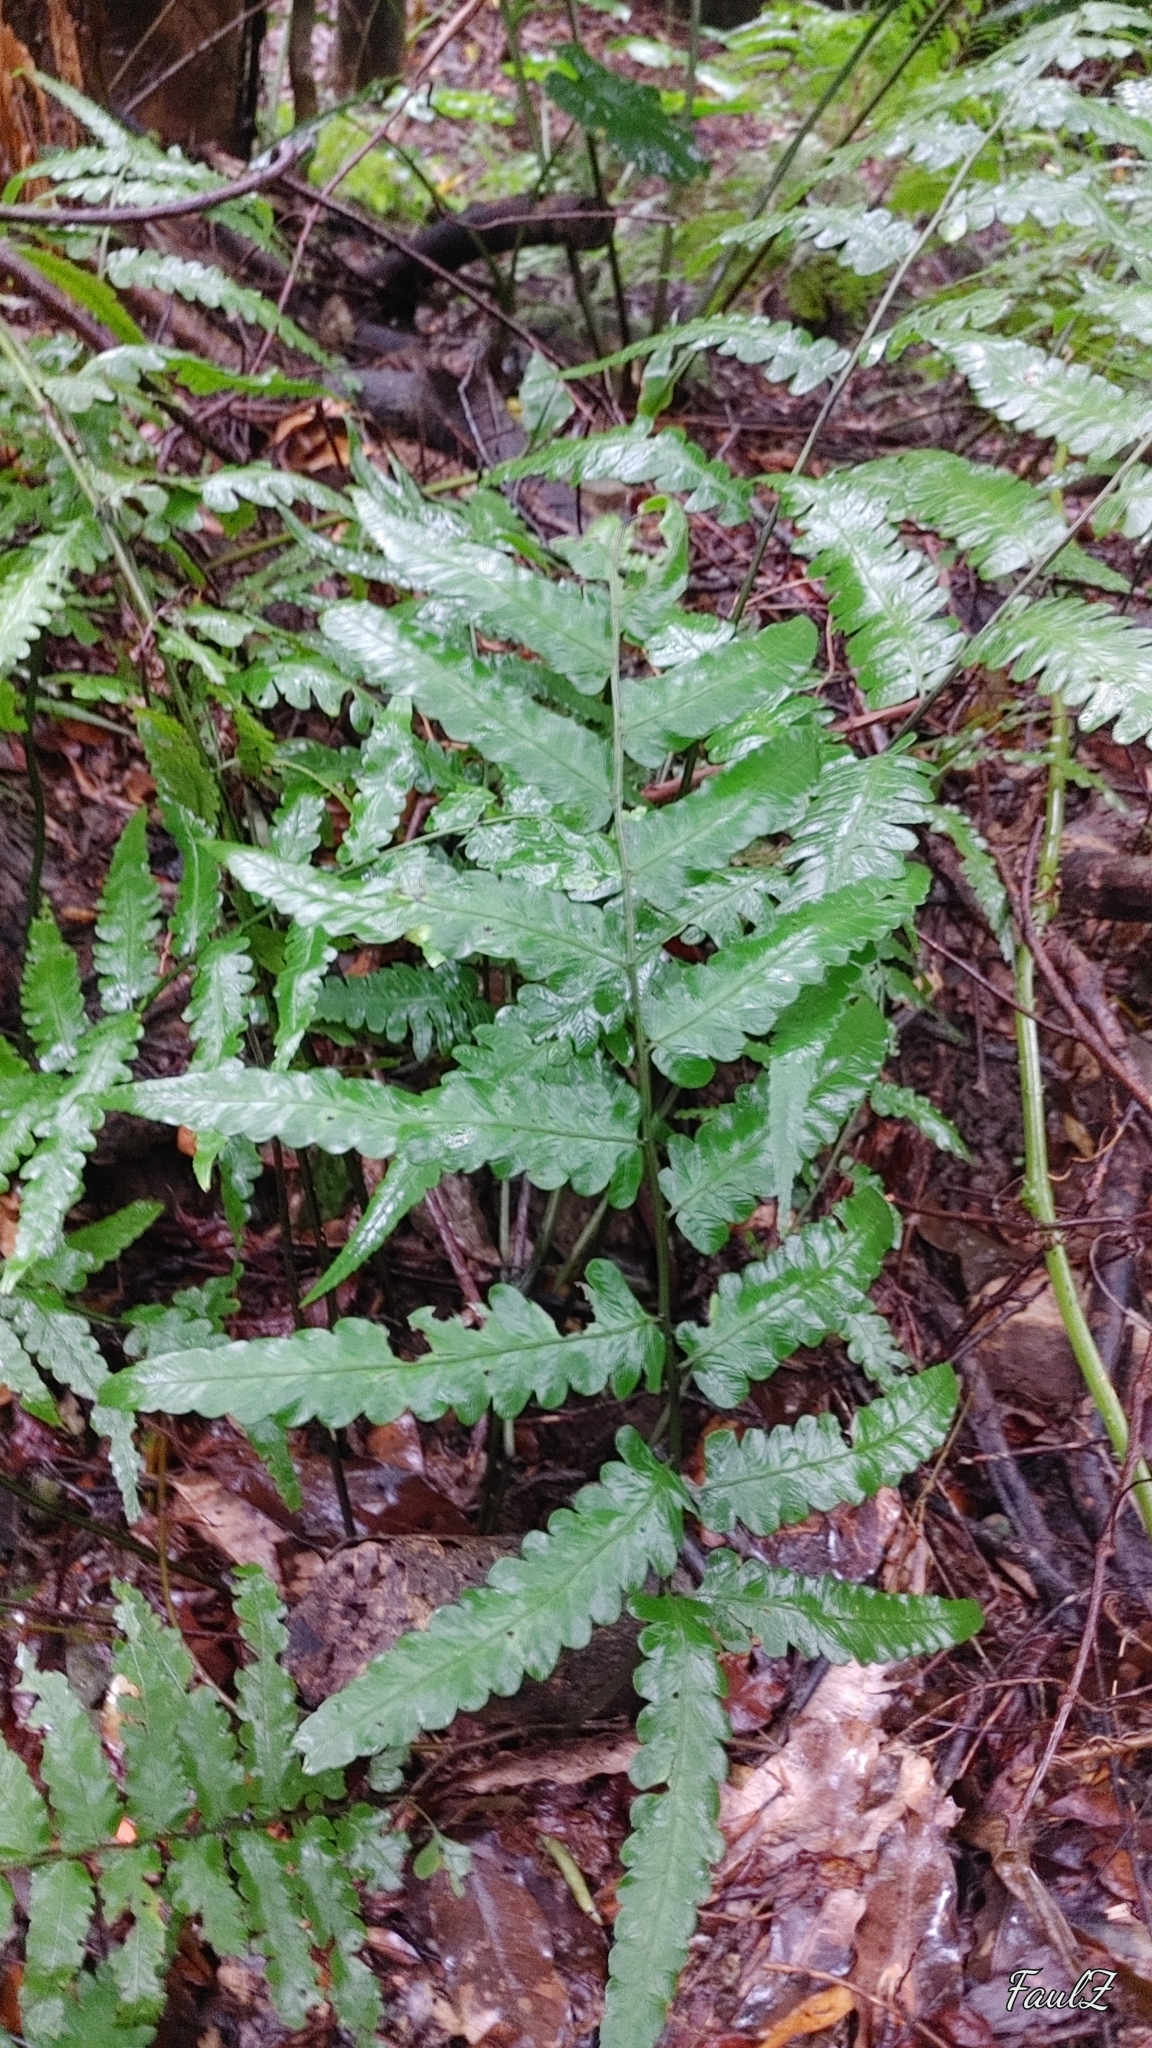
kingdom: Plantae
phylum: Tracheophyta
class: Polypodiopsida
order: Polypodiales
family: Athyriaceae
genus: Diplazium
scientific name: Diplazium dilatatum
